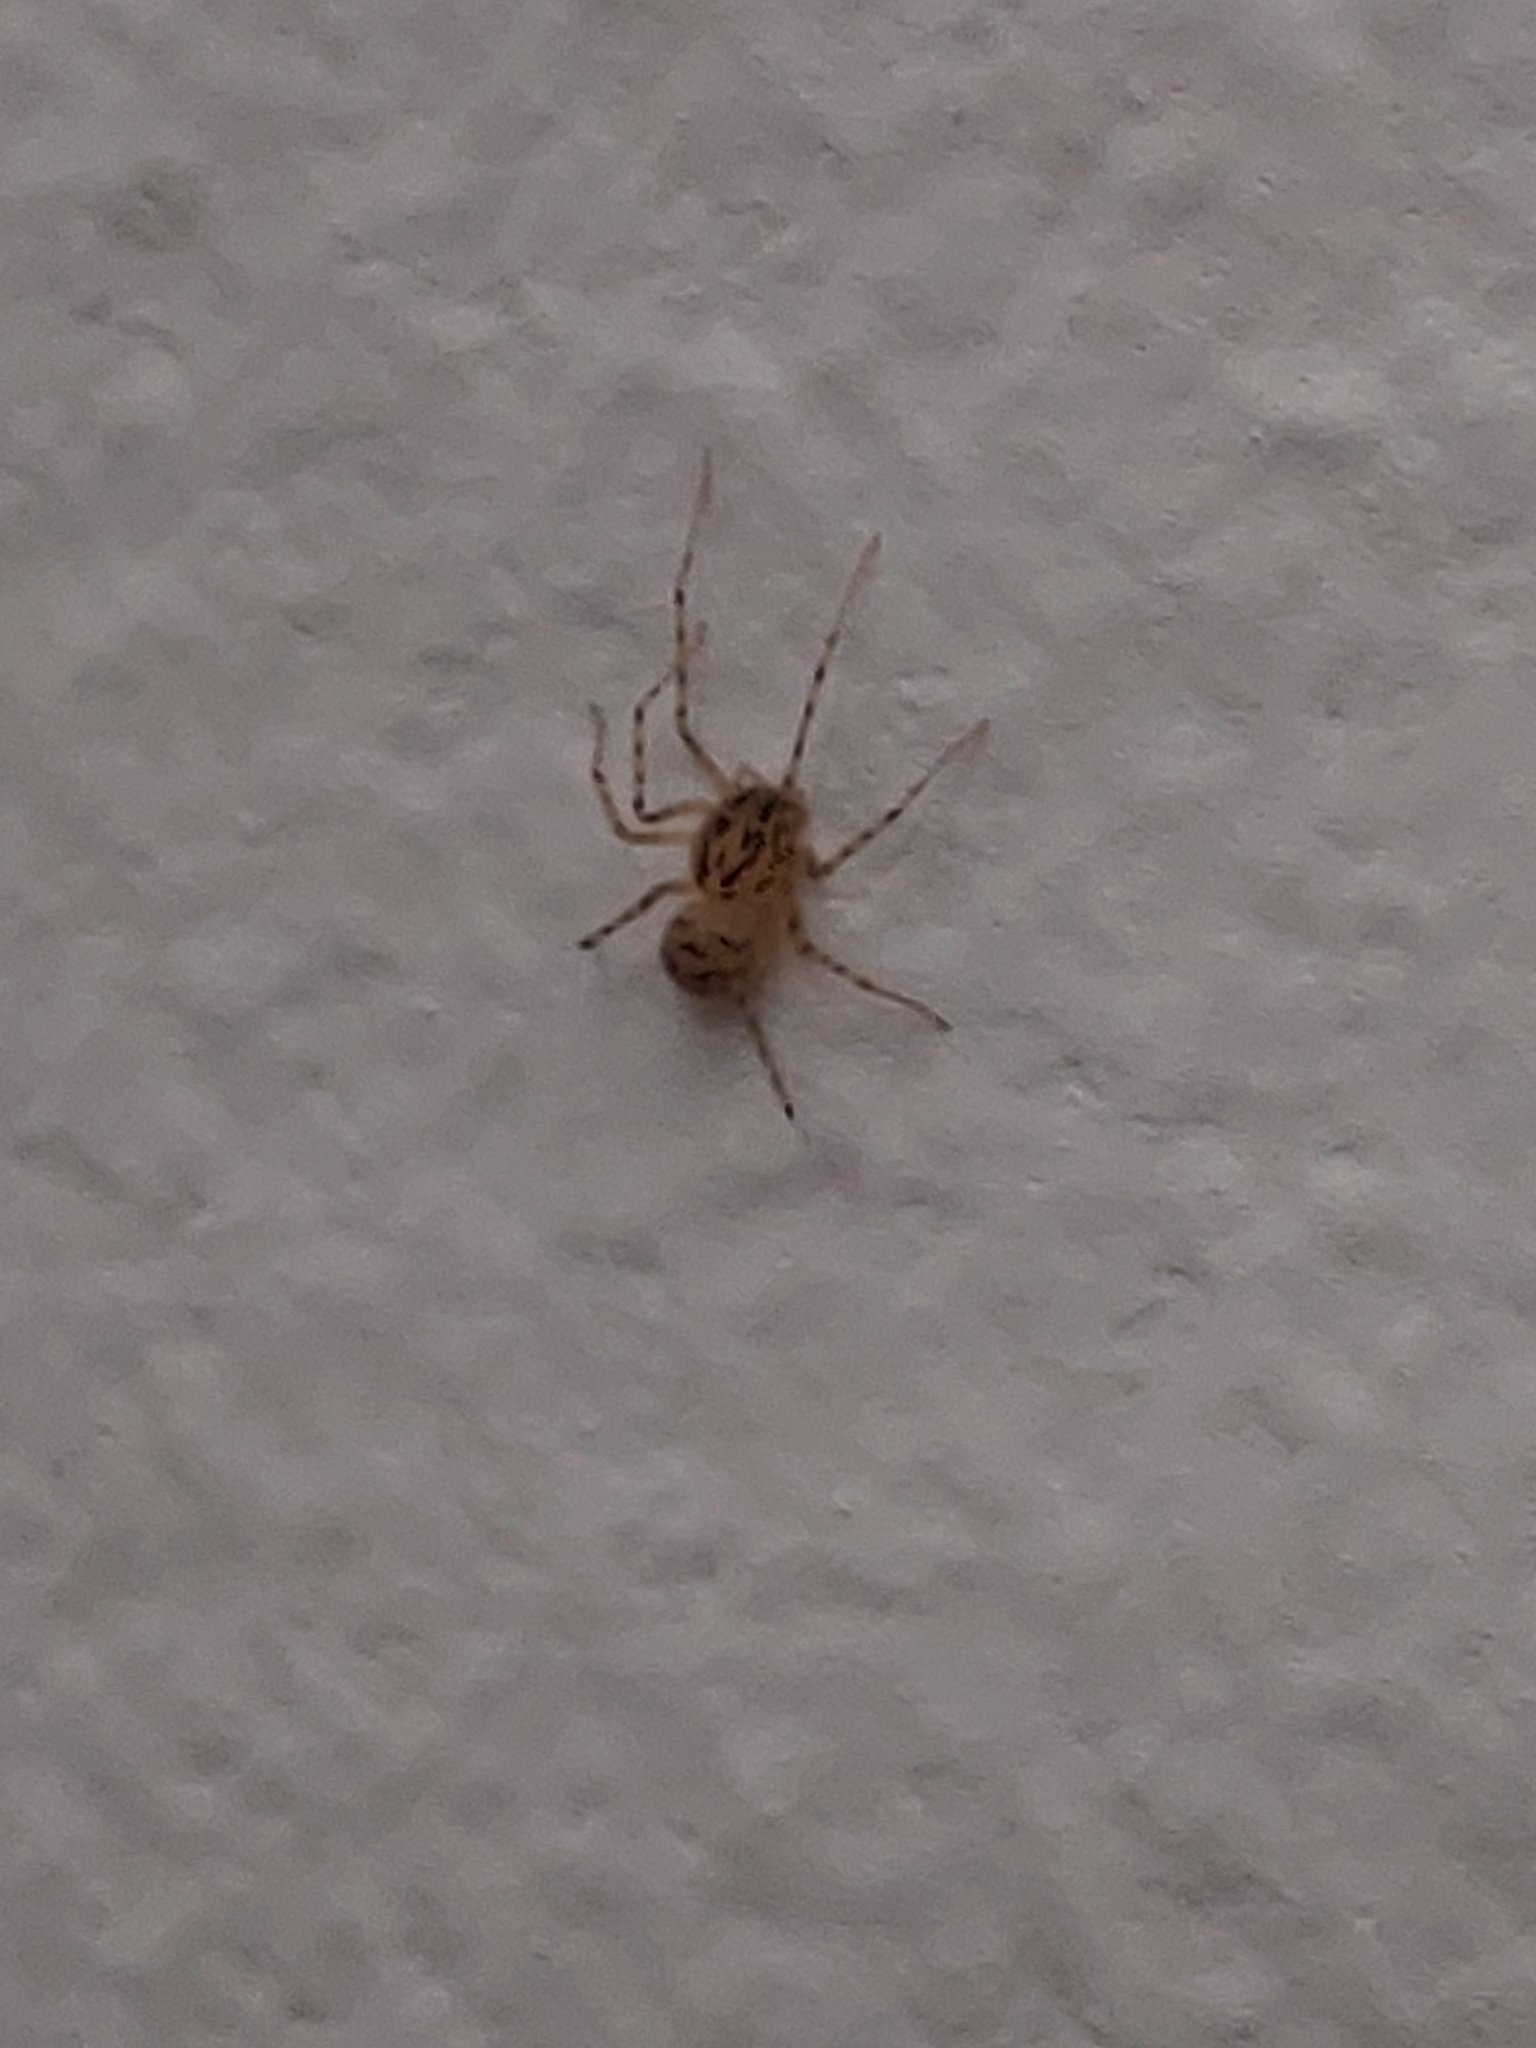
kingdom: Animalia
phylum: Arthropoda
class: Arachnida
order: Araneae
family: Scytodidae
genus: Scytodes
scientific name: Scytodes thoracica
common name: Spitting spider
